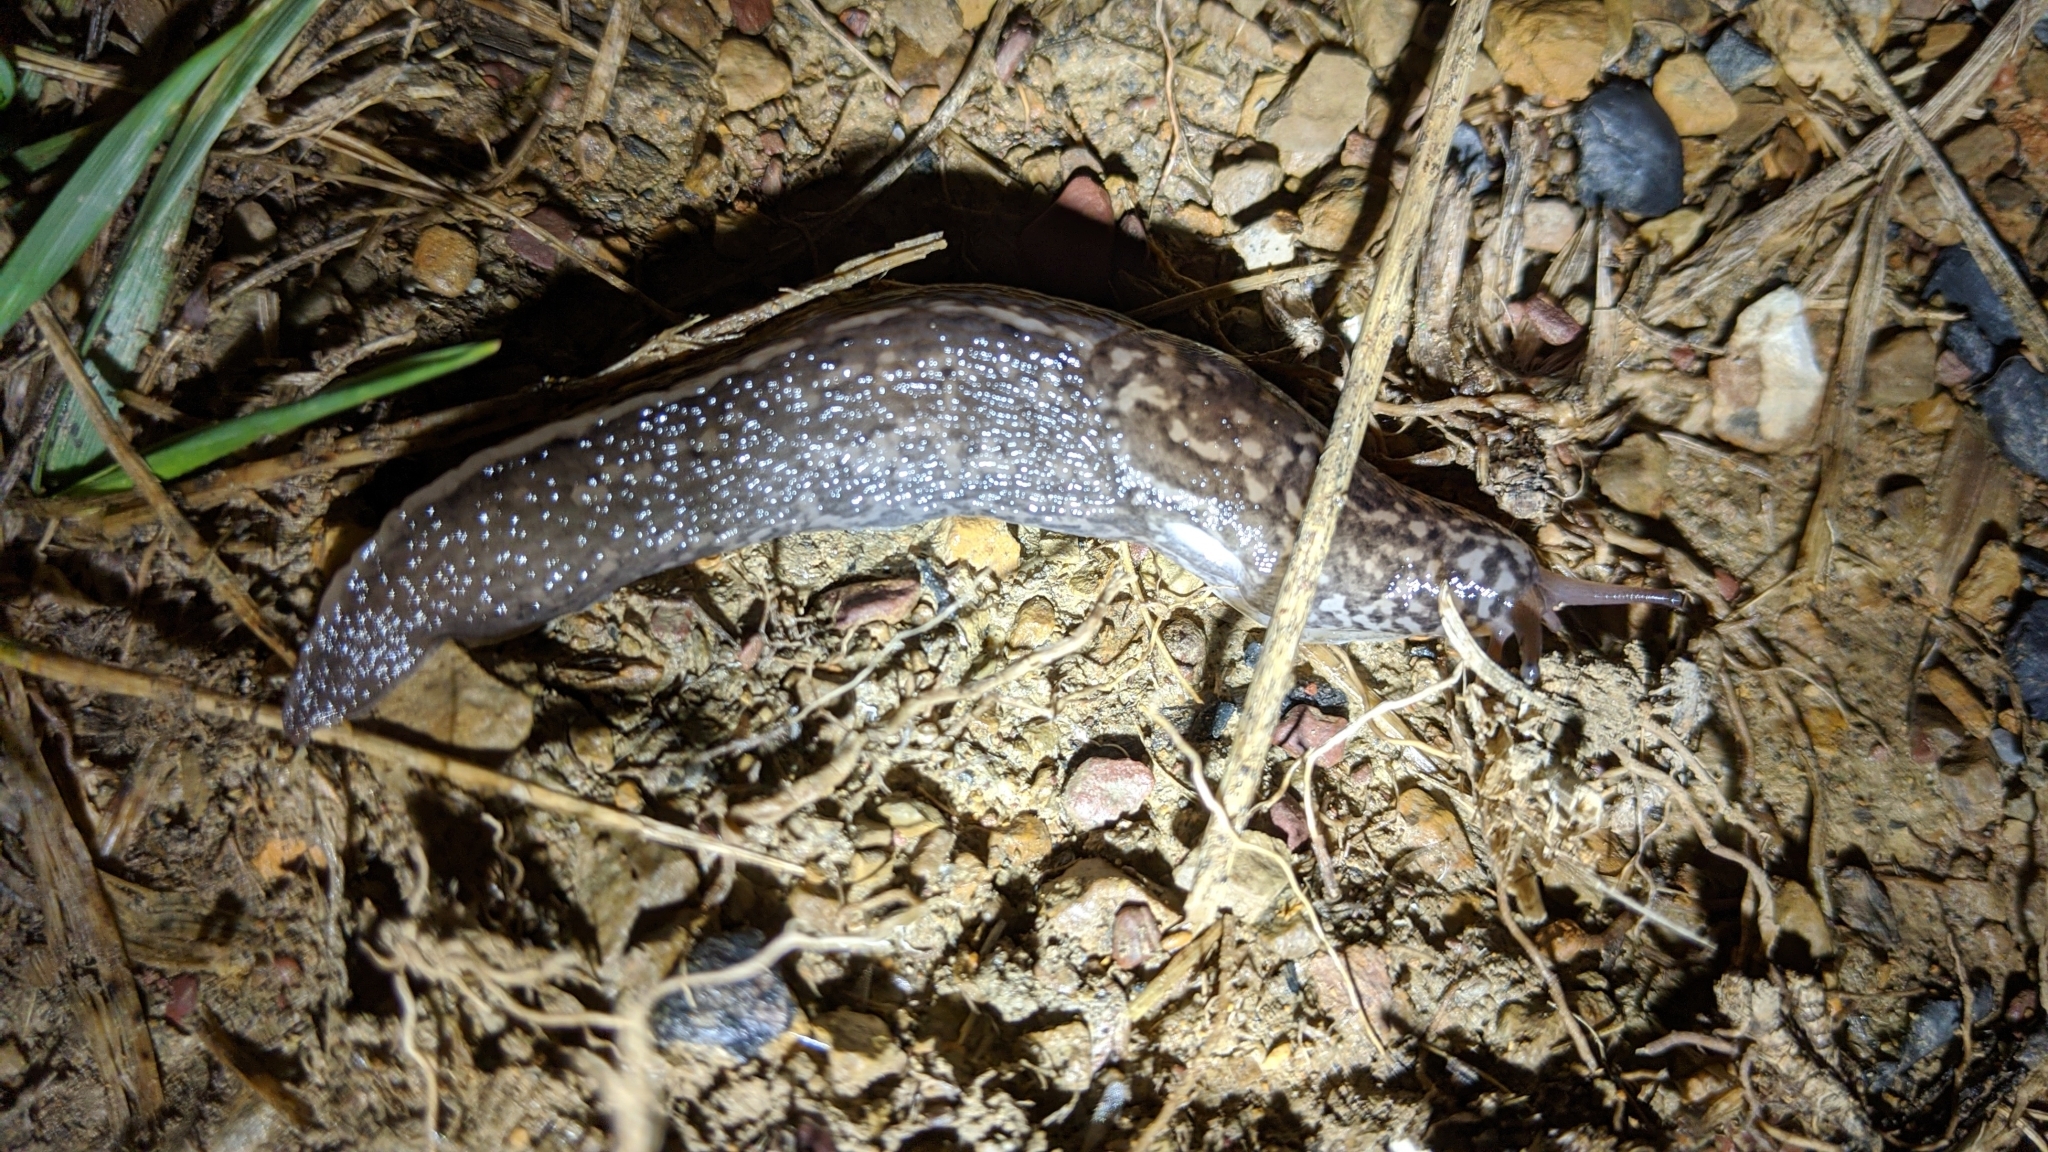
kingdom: Animalia
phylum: Mollusca
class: Gastropoda
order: Stylommatophora
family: Limacidae
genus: Limax
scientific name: Limax maximus
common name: Great grey slug
